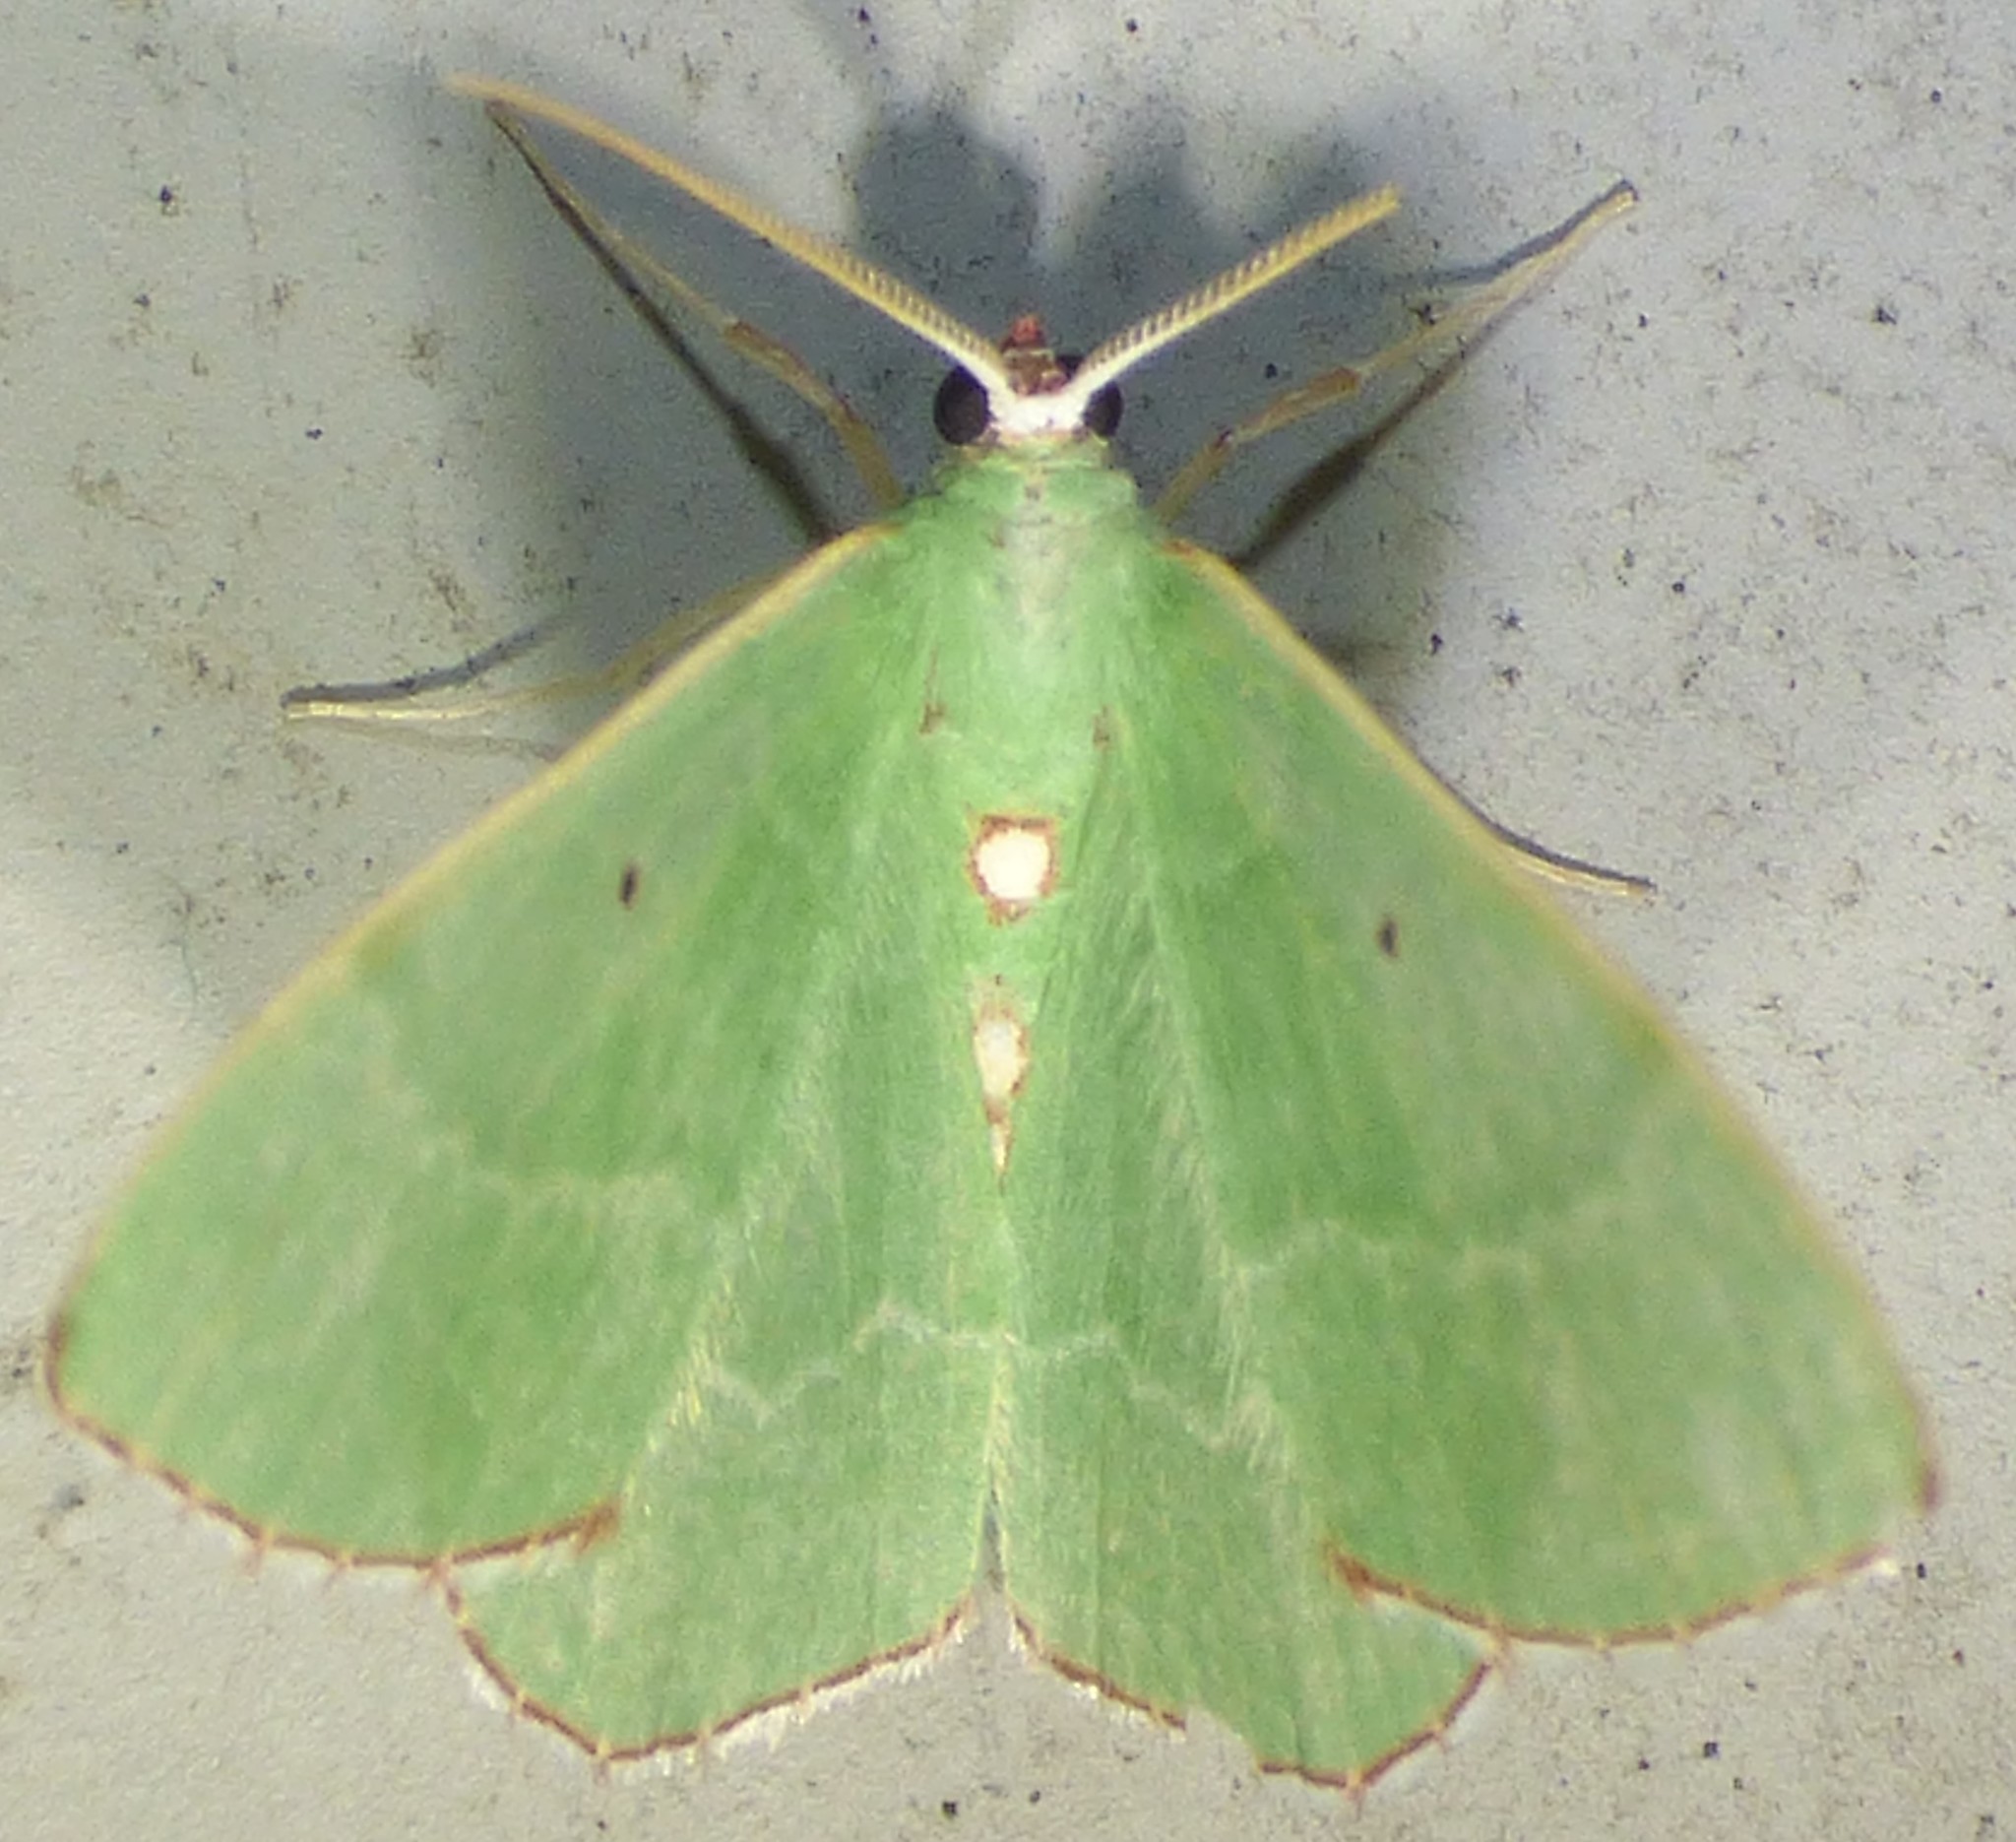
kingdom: Animalia
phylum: Arthropoda
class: Insecta
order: Lepidoptera
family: Geometridae
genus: Nemoria
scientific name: Nemoria lixaria
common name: Red-bordered emerald
